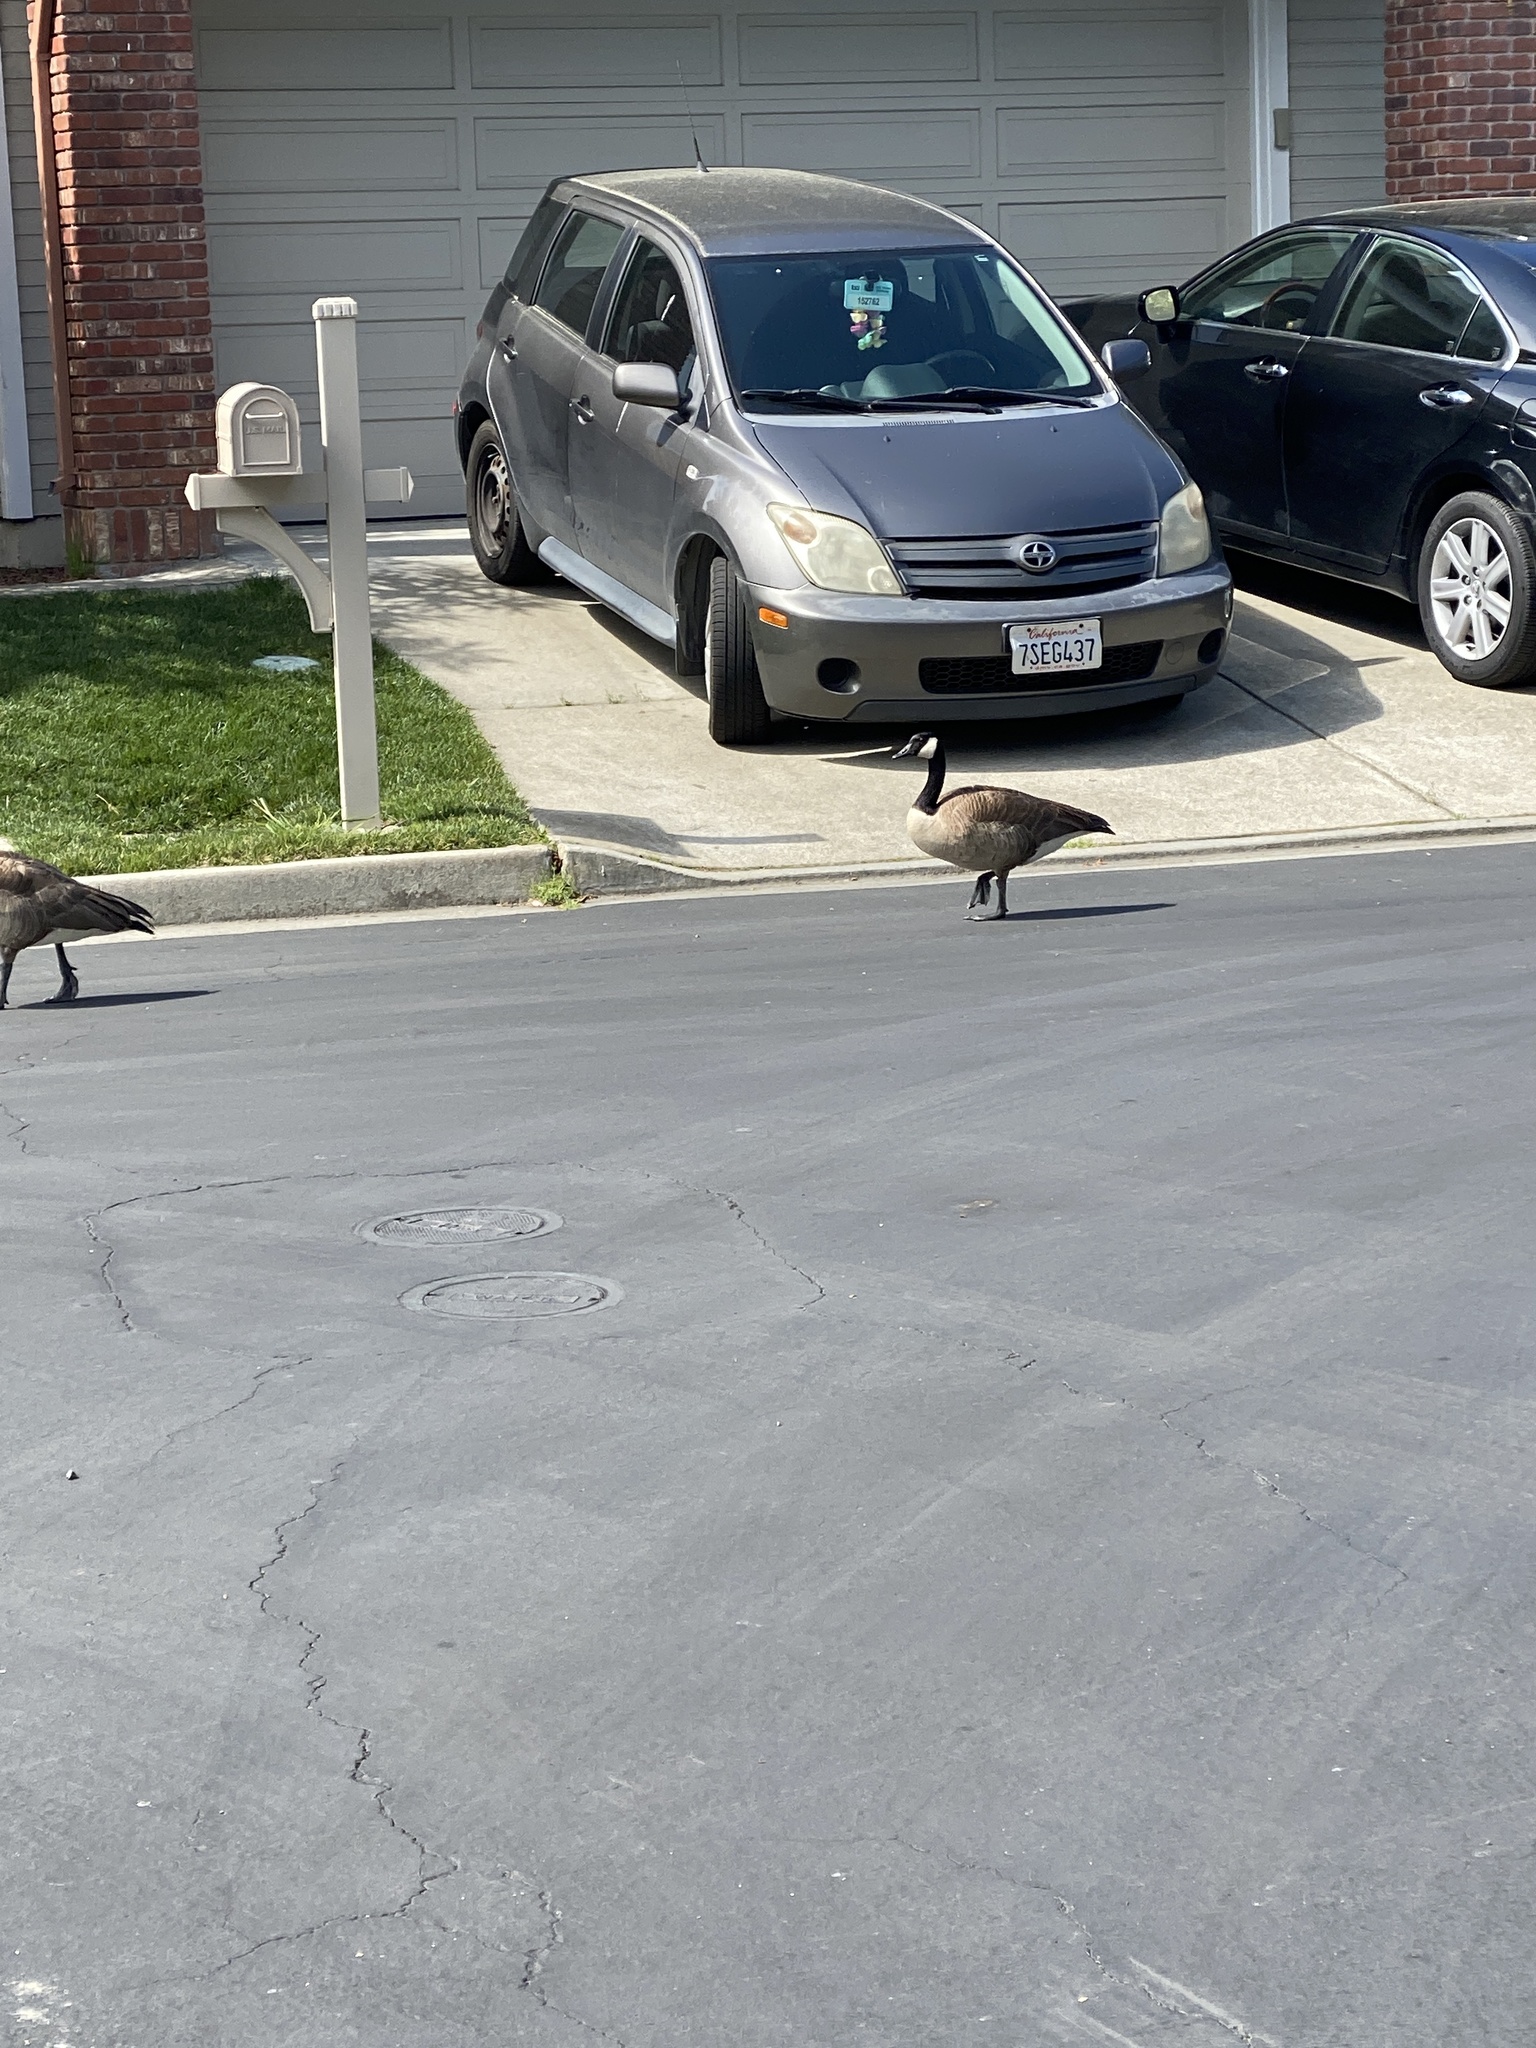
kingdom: Animalia
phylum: Chordata
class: Aves
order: Anseriformes
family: Anatidae
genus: Branta
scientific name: Branta canadensis
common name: Canada goose
